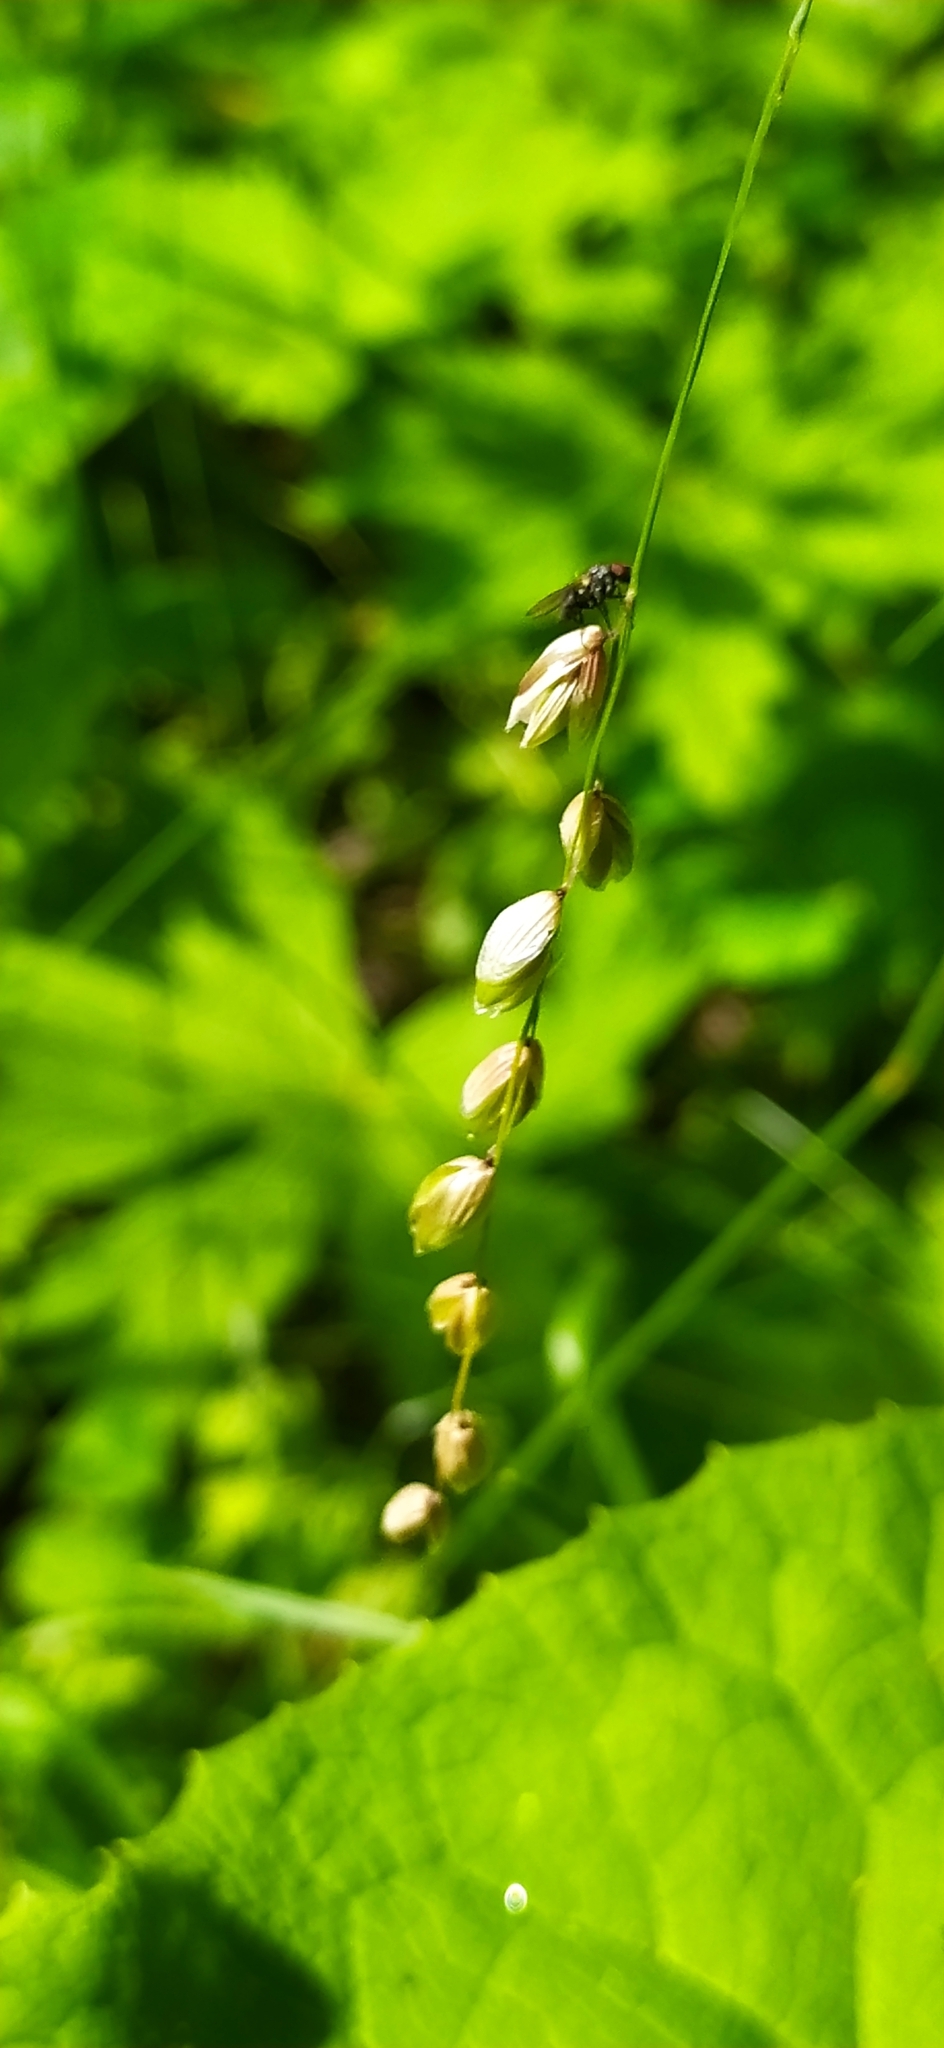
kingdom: Plantae
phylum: Tracheophyta
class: Liliopsida
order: Poales
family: Poaceae
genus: Melica
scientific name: Melica nutans
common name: Mountain melick
